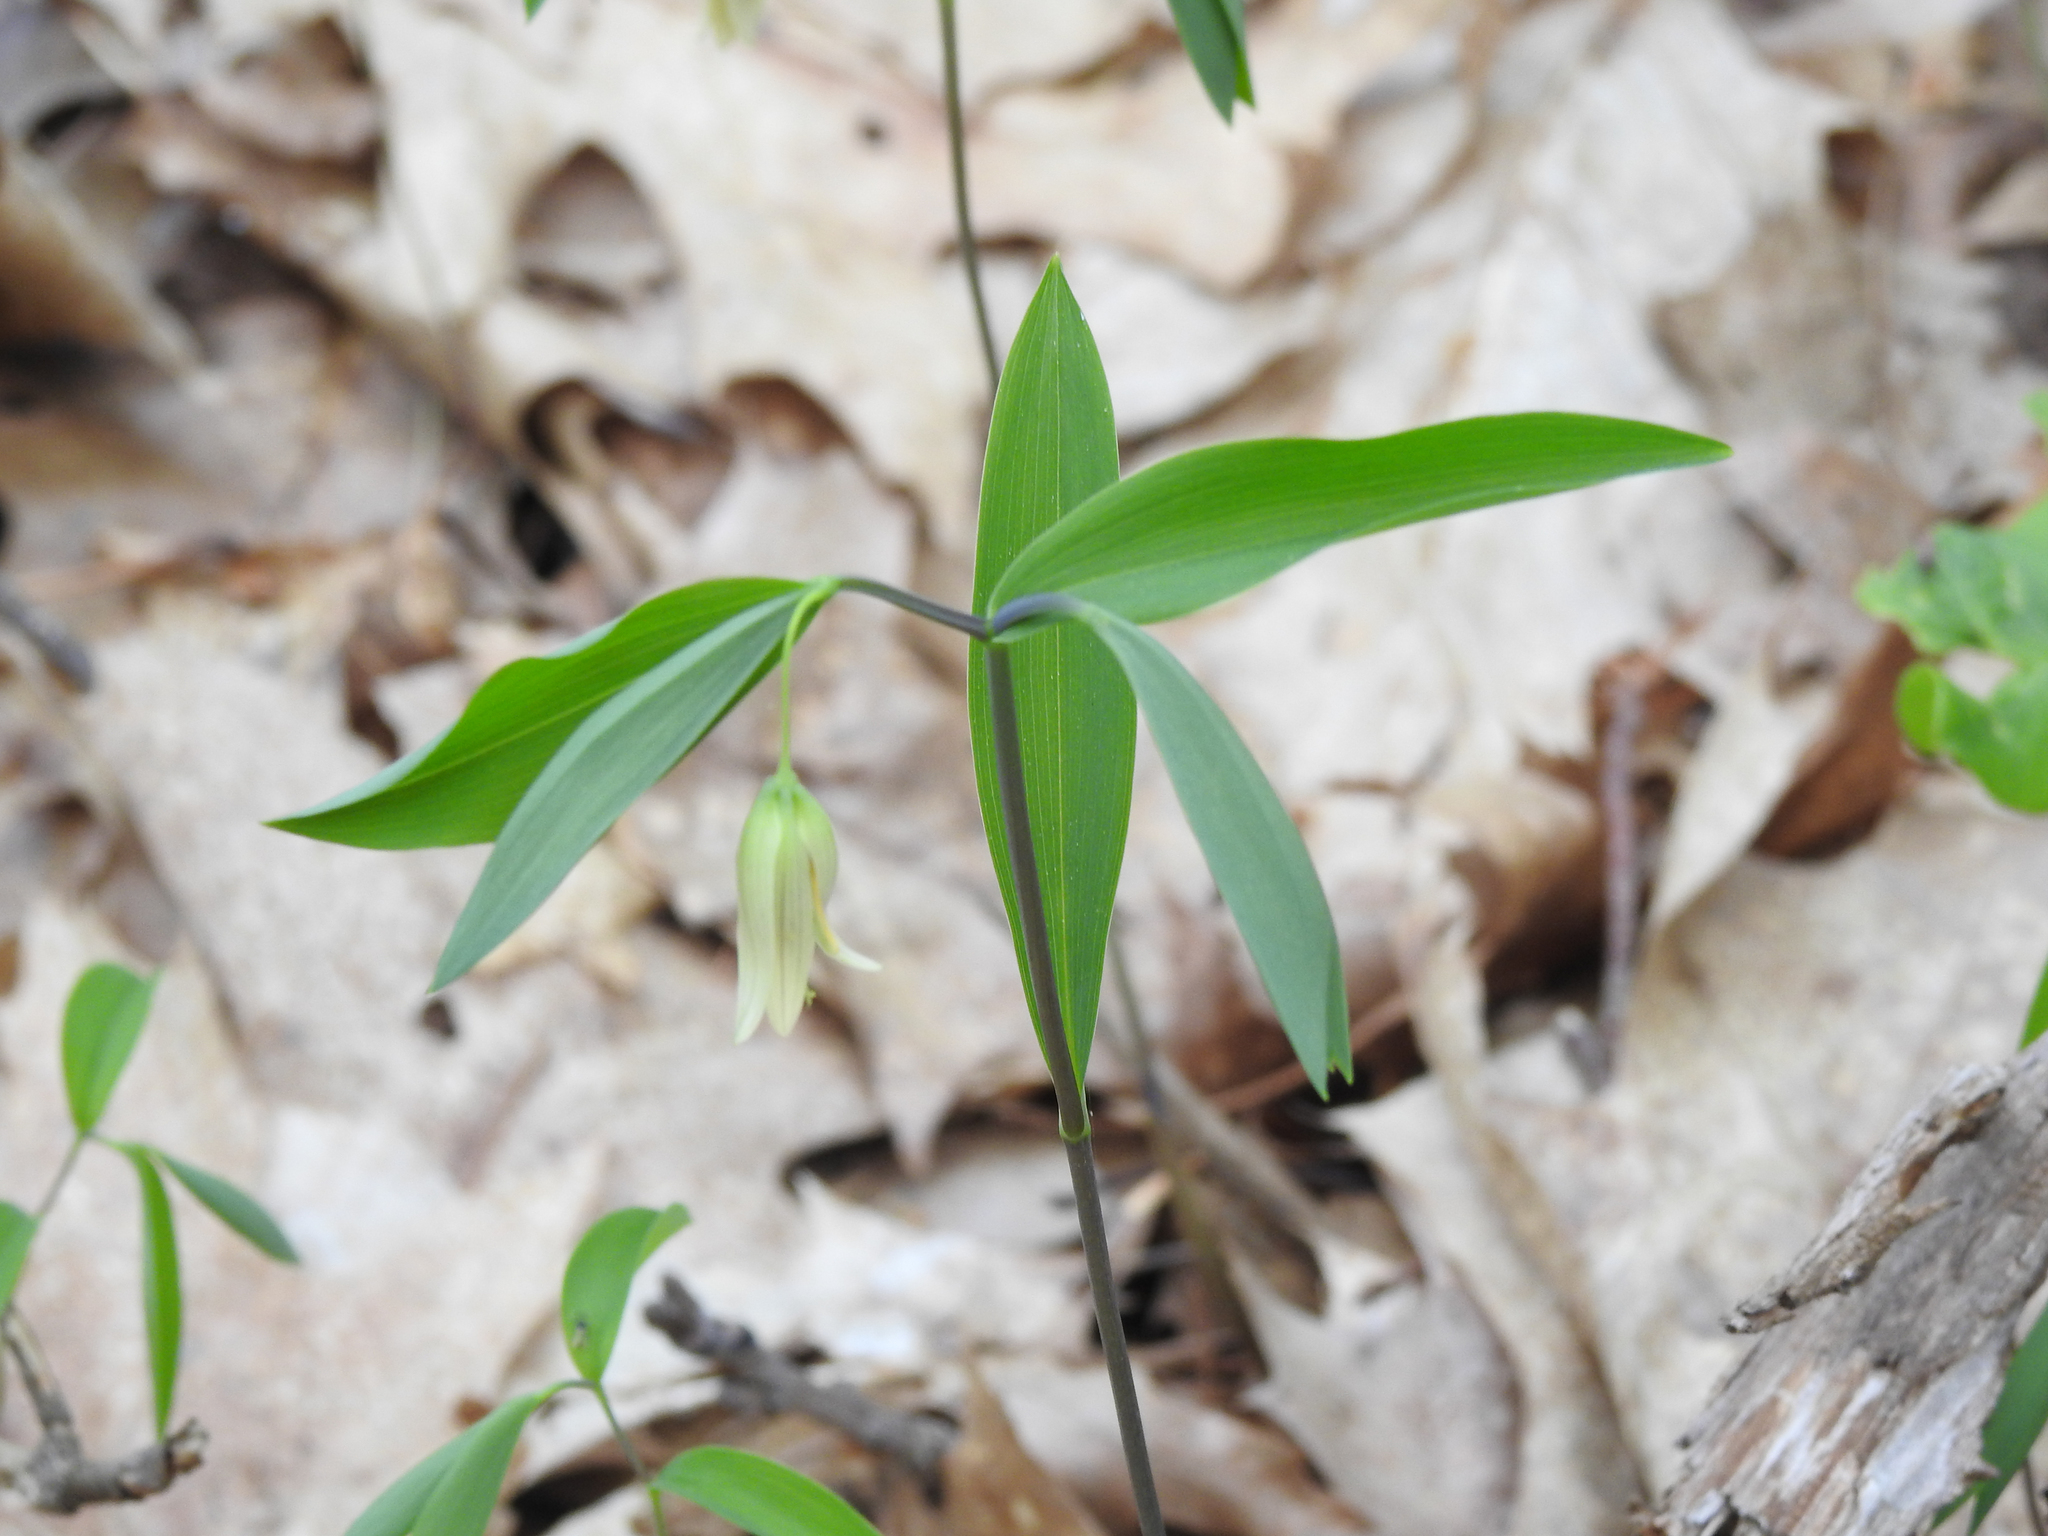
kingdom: Plantae
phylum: Tracheophyta
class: Liliopsida
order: Liliales
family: Colchicaceae
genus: Uvularia
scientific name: Uvularia sessilifolia
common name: Straw-lily
